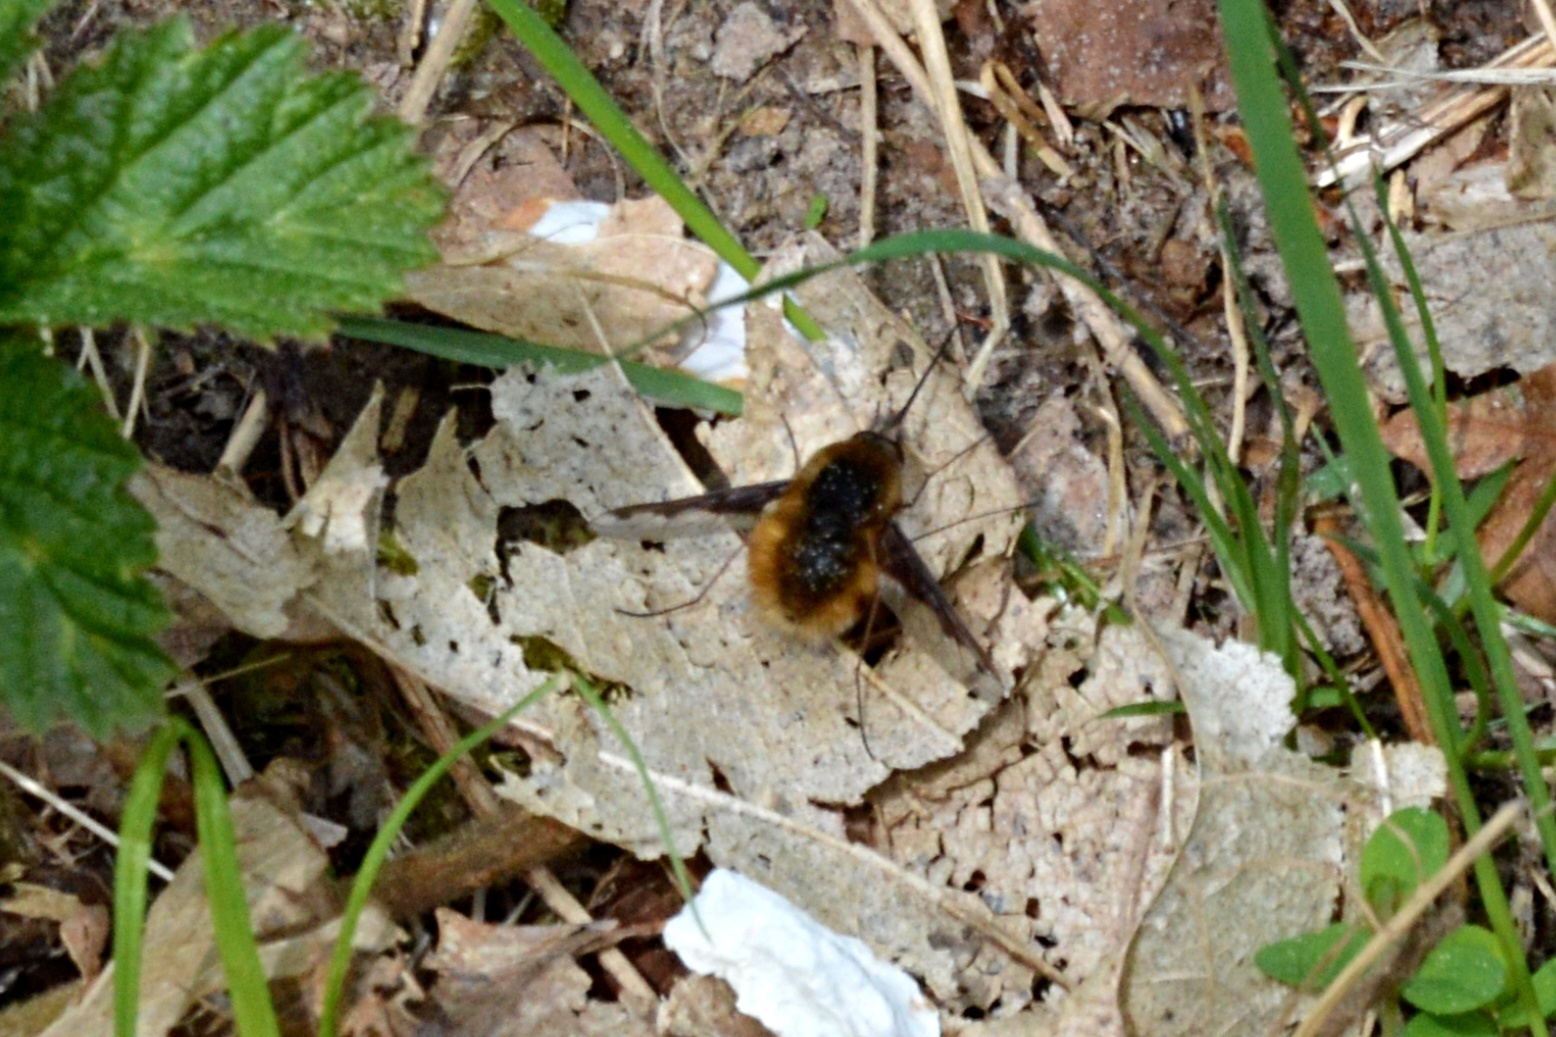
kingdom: Animalia
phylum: Arthropoda
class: Insecta
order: Diptera
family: Bombyliidae
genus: Bombylius
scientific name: Bombylius major
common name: Bee fly
